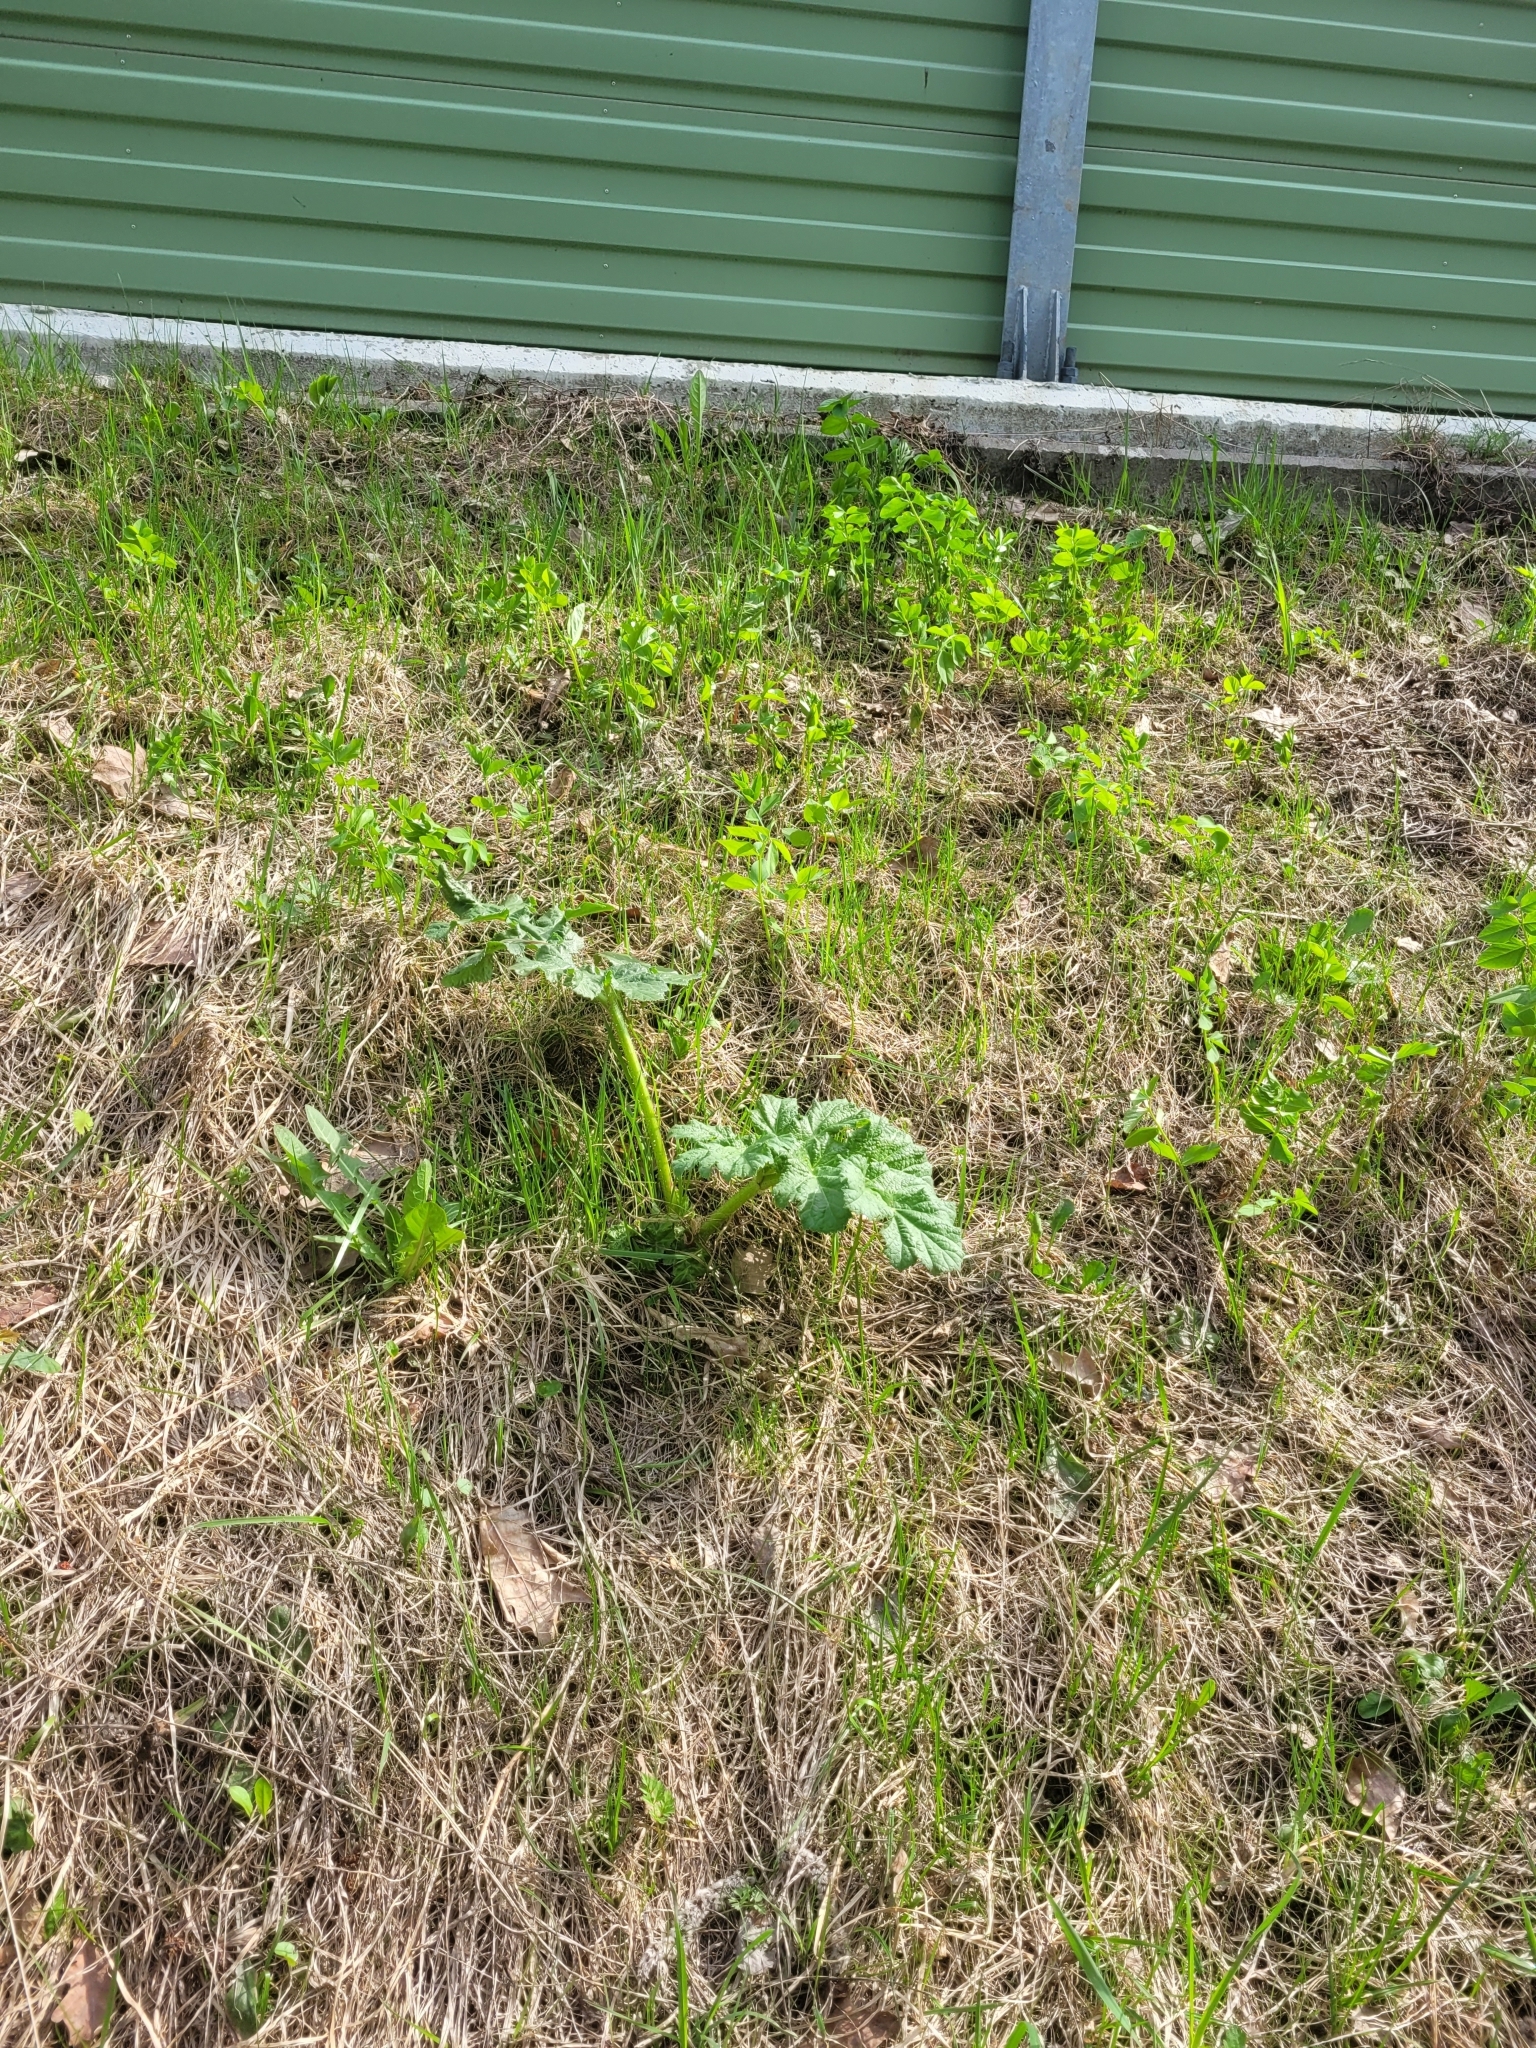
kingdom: Plantae
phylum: Tracheophyta
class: Magnoliopsida
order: Apiales
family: Apiaceae
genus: Heracleum
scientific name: Heracleum sosnowskyi
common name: Sosnowsky's hogweed
